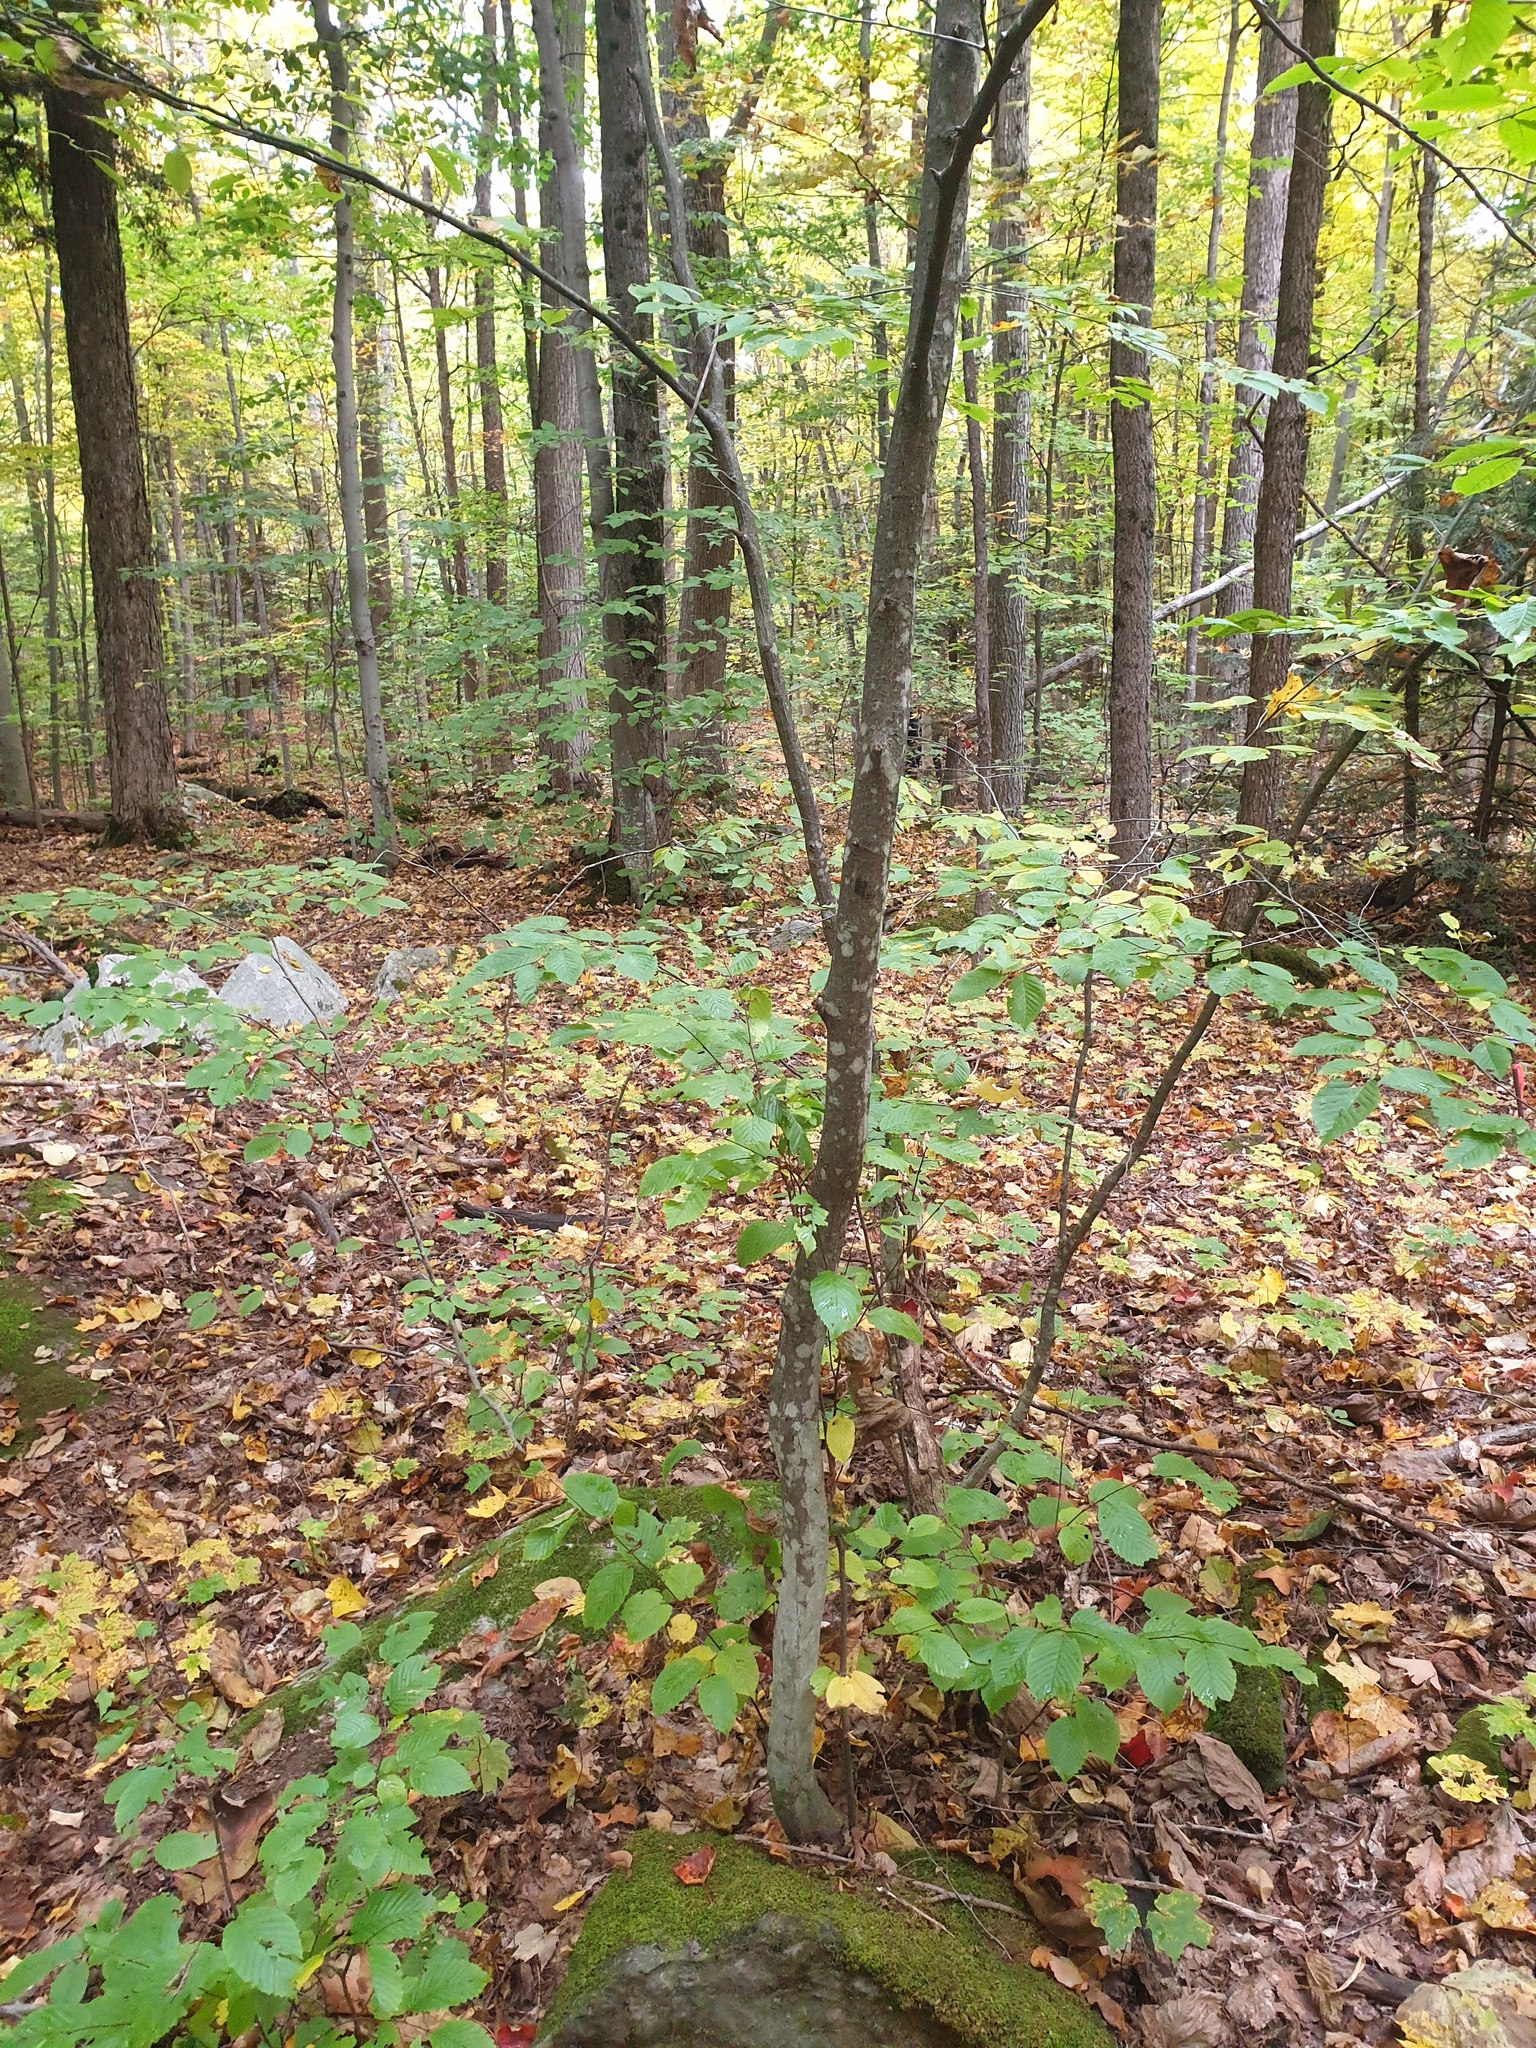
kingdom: Plantae
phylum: Tracheophyta
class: Magnoliopsida
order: Fagales
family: Betulaceae
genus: Carpinus
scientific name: Carpinus caroliniana
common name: American hornbeam
